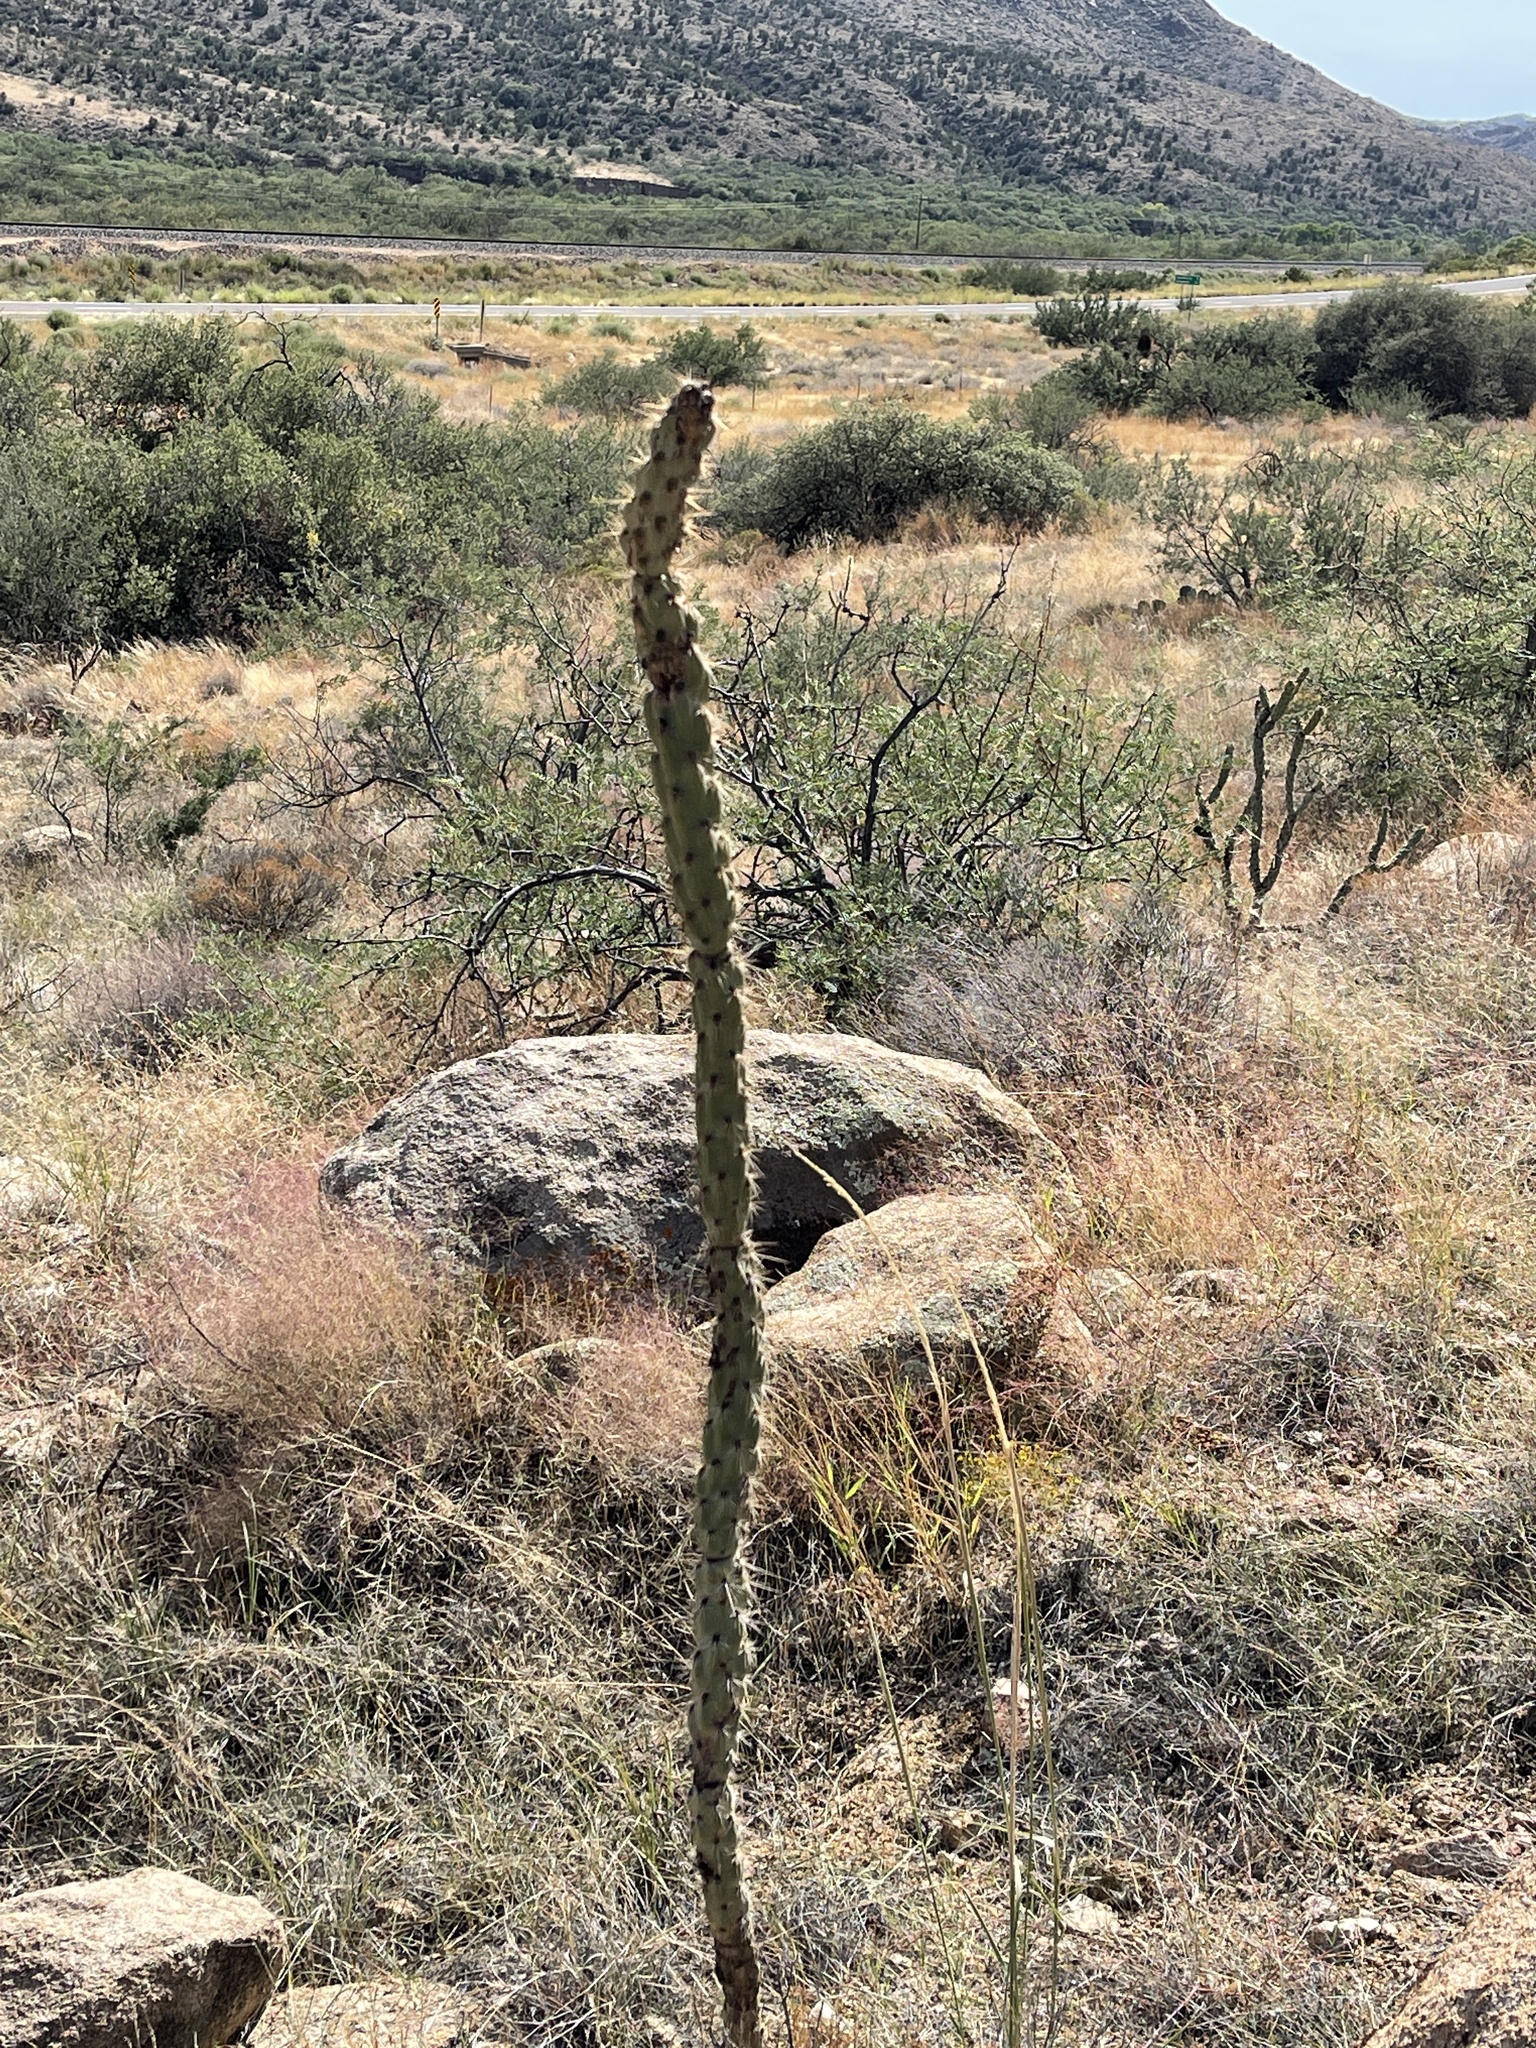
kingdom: Plantae
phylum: Tracheophyta
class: Magnoliopsida
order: Caryophyllales
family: Cactaceae
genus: Cylindropuntia
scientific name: Cylindropuntia acanthocarpa
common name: Buckhorn cholla
